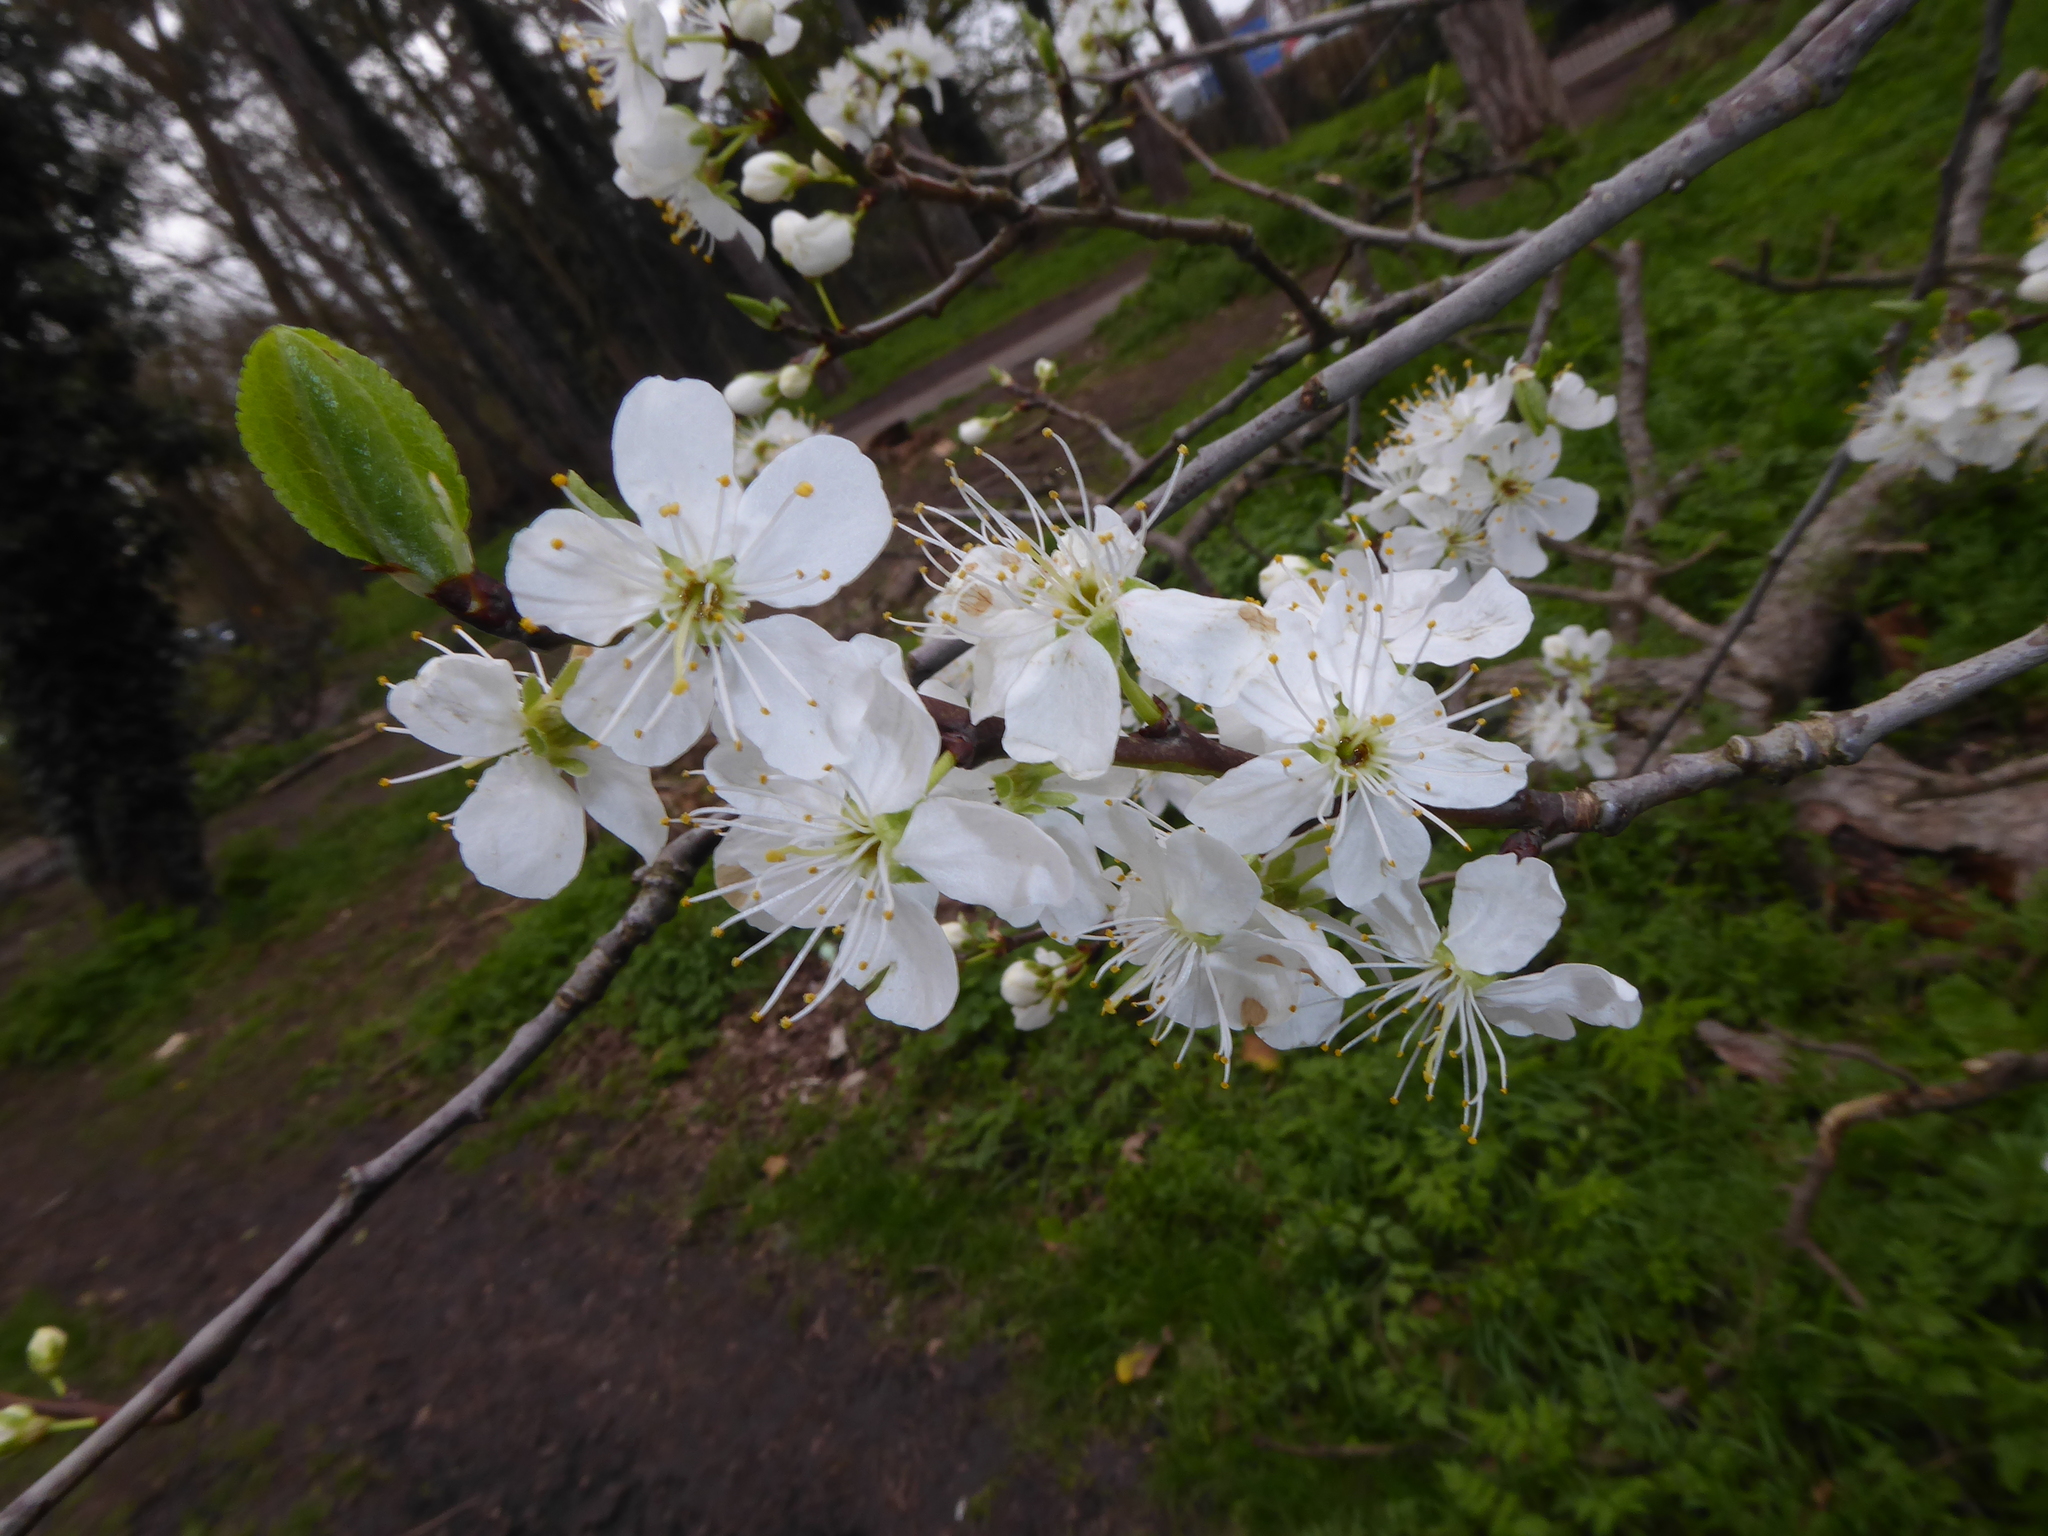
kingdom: Plantae
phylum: Tracheophyta
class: Magnoliopsida
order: Rosales
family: Rosaceae
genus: Prunus
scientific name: Prunus domestica
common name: Wild plum
